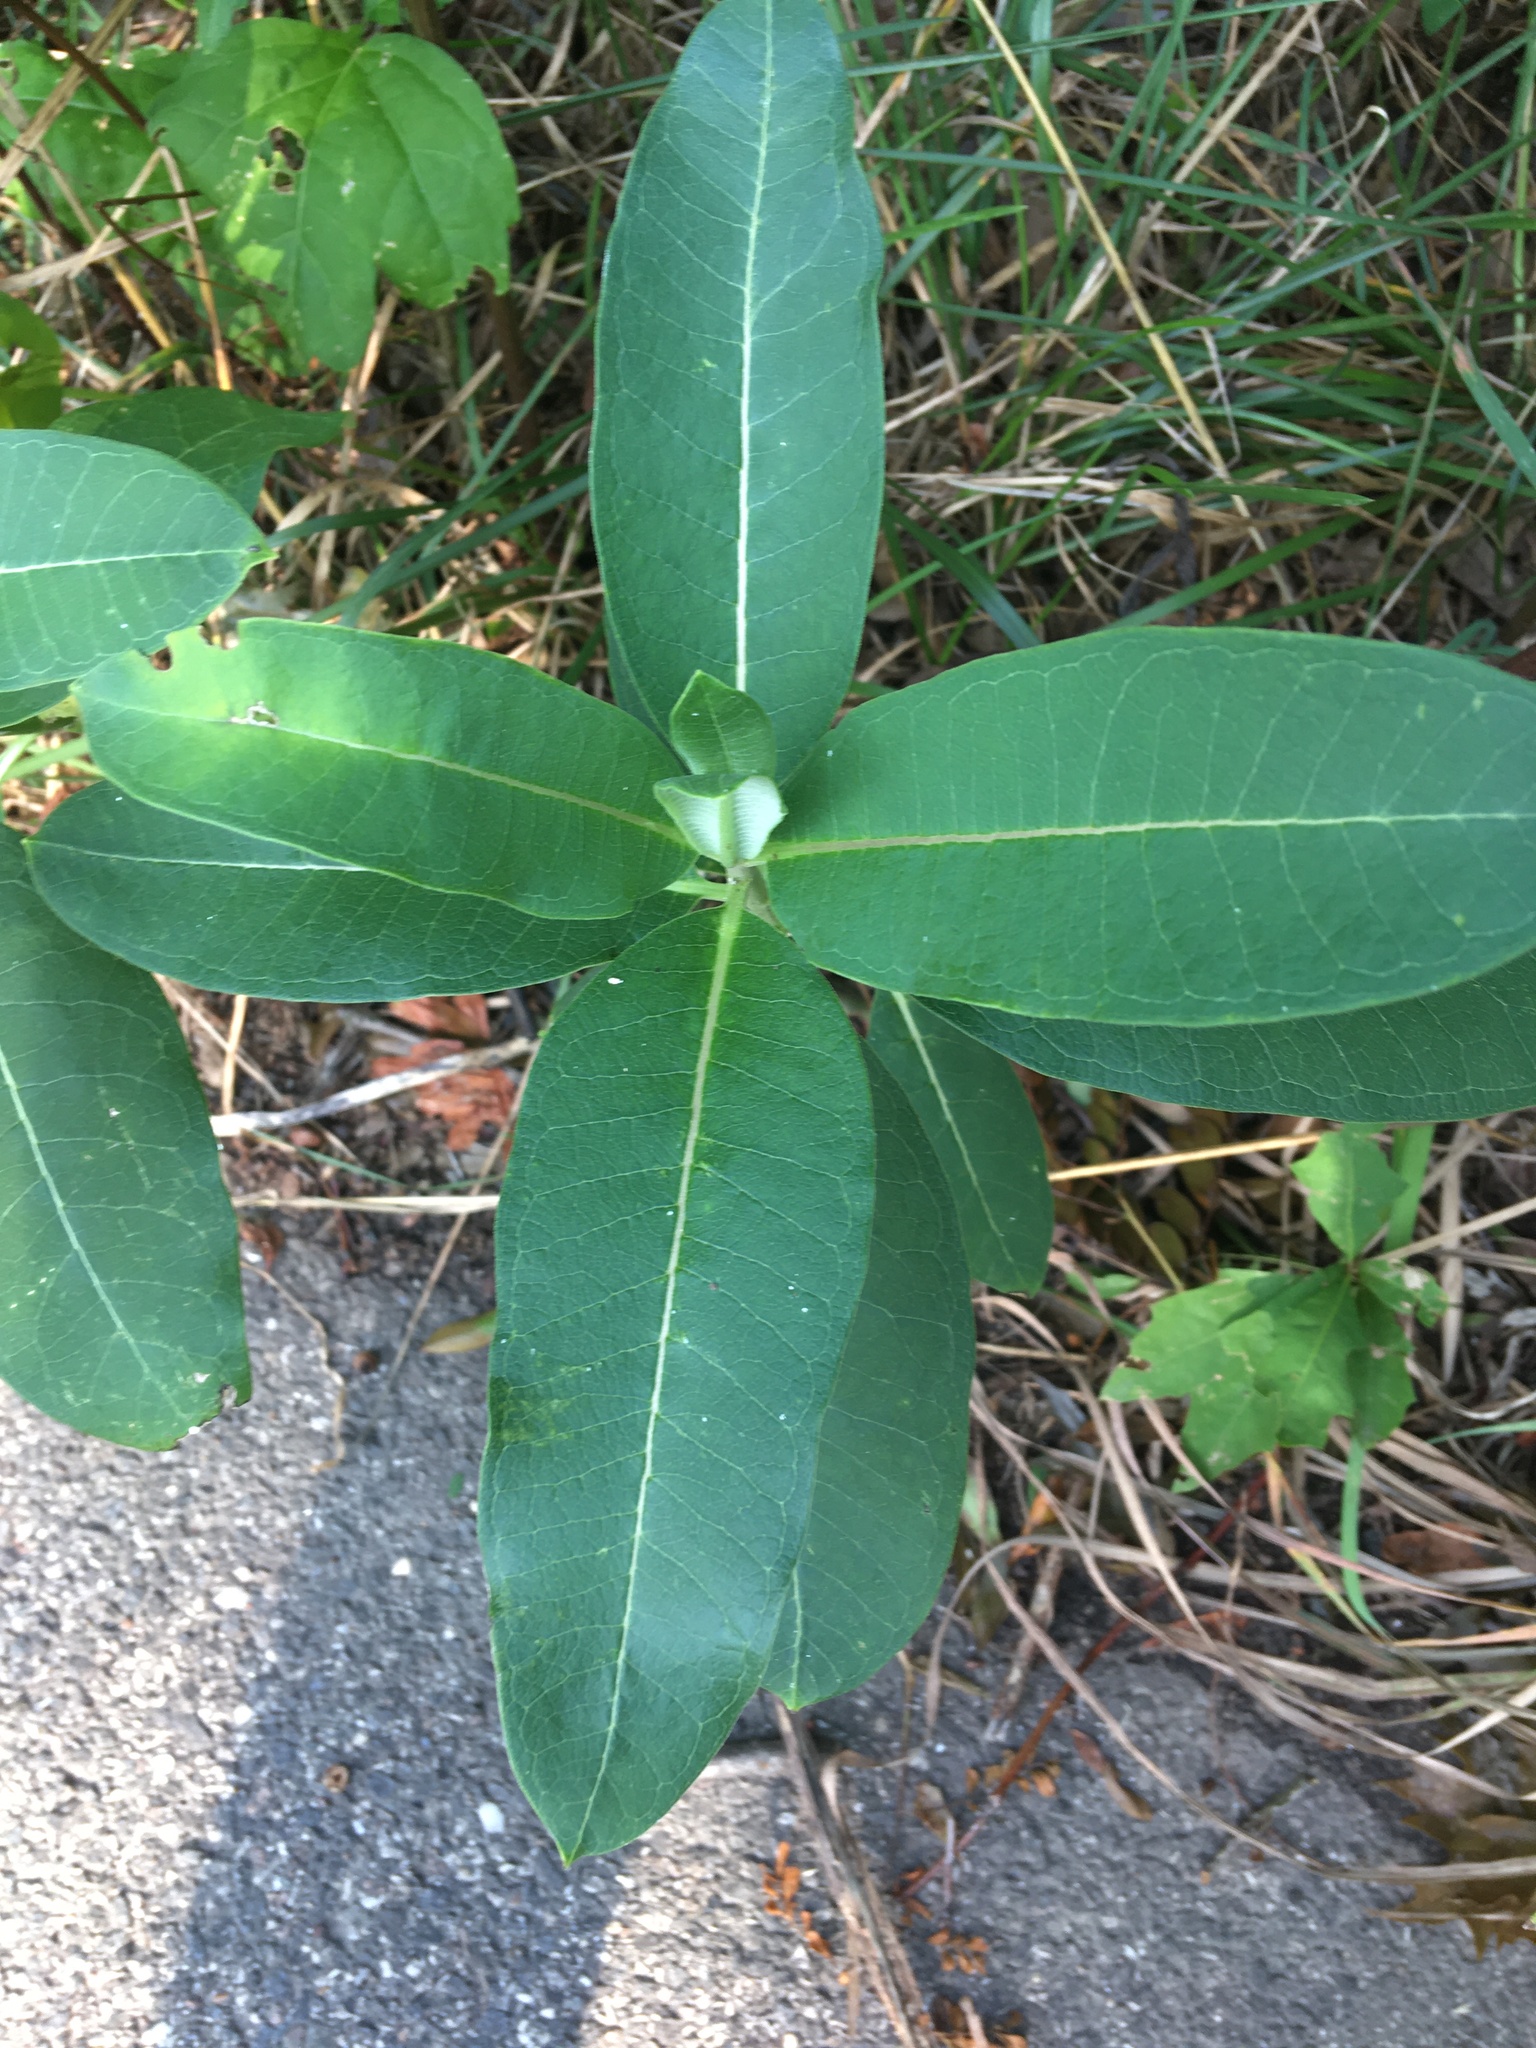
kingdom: Plantae
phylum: Tracheophyta
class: Magnoliopsida
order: Gentianales
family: Apocynaceae
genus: Asclepias
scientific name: Asclepias syriaca
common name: Common milkweed
